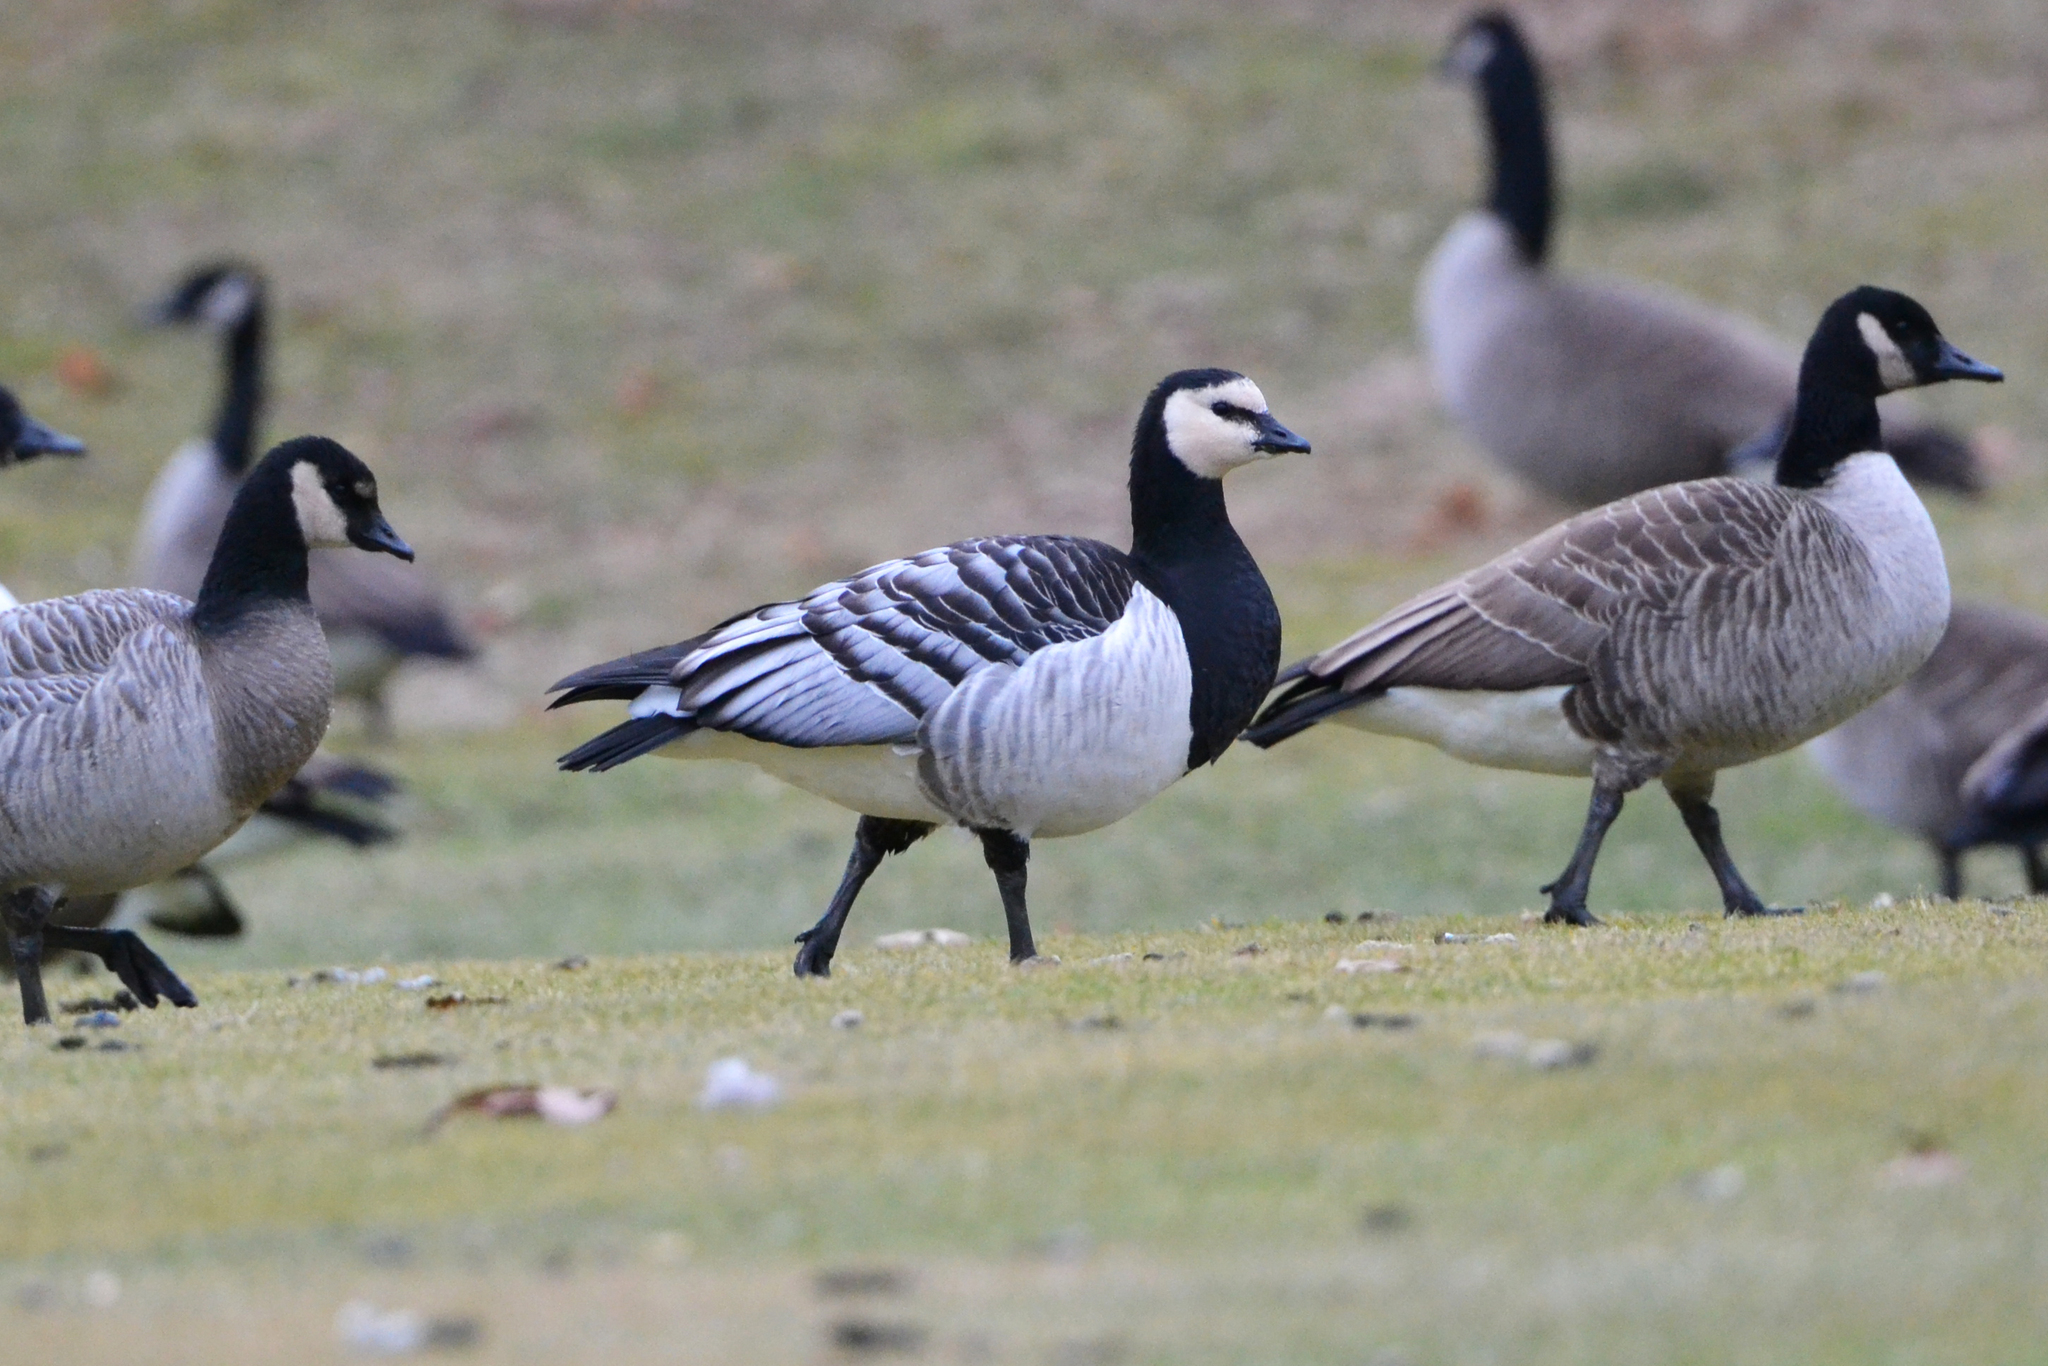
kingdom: Animalia
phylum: Chordata
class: Aves
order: Anseriformes
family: Anatidae
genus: Branta
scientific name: Branta leucopsis
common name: Barnacle goose
